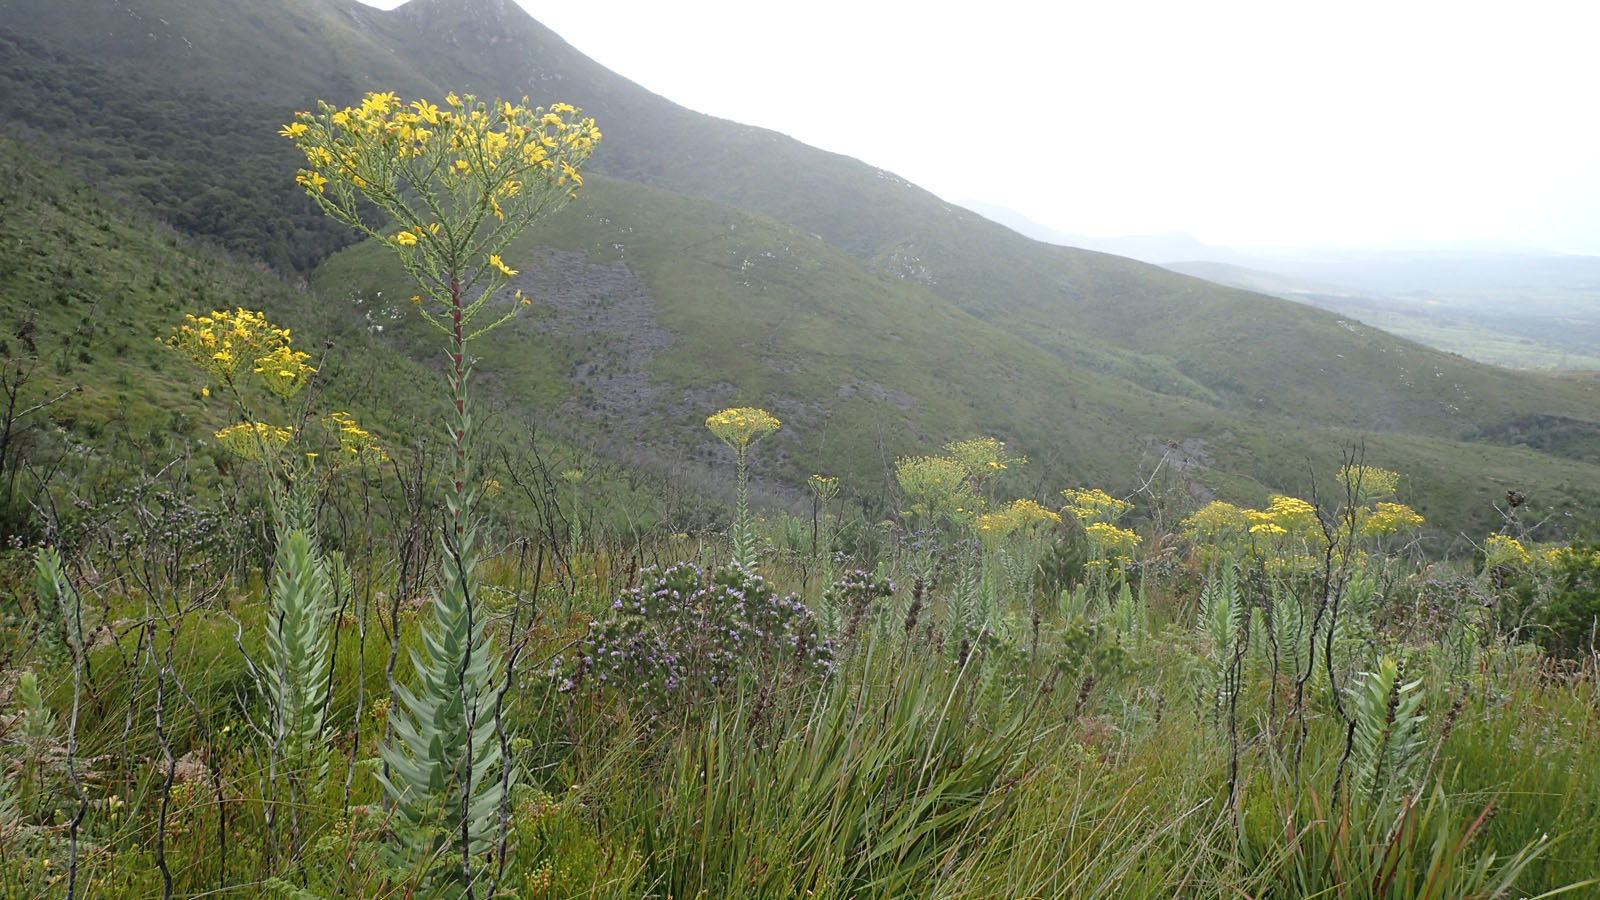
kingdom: Plantae
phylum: Tracheophyta
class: Magnoliopsida
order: Asterales
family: Asteraceae
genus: Osteospermum
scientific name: Osteospermum corymbosum
